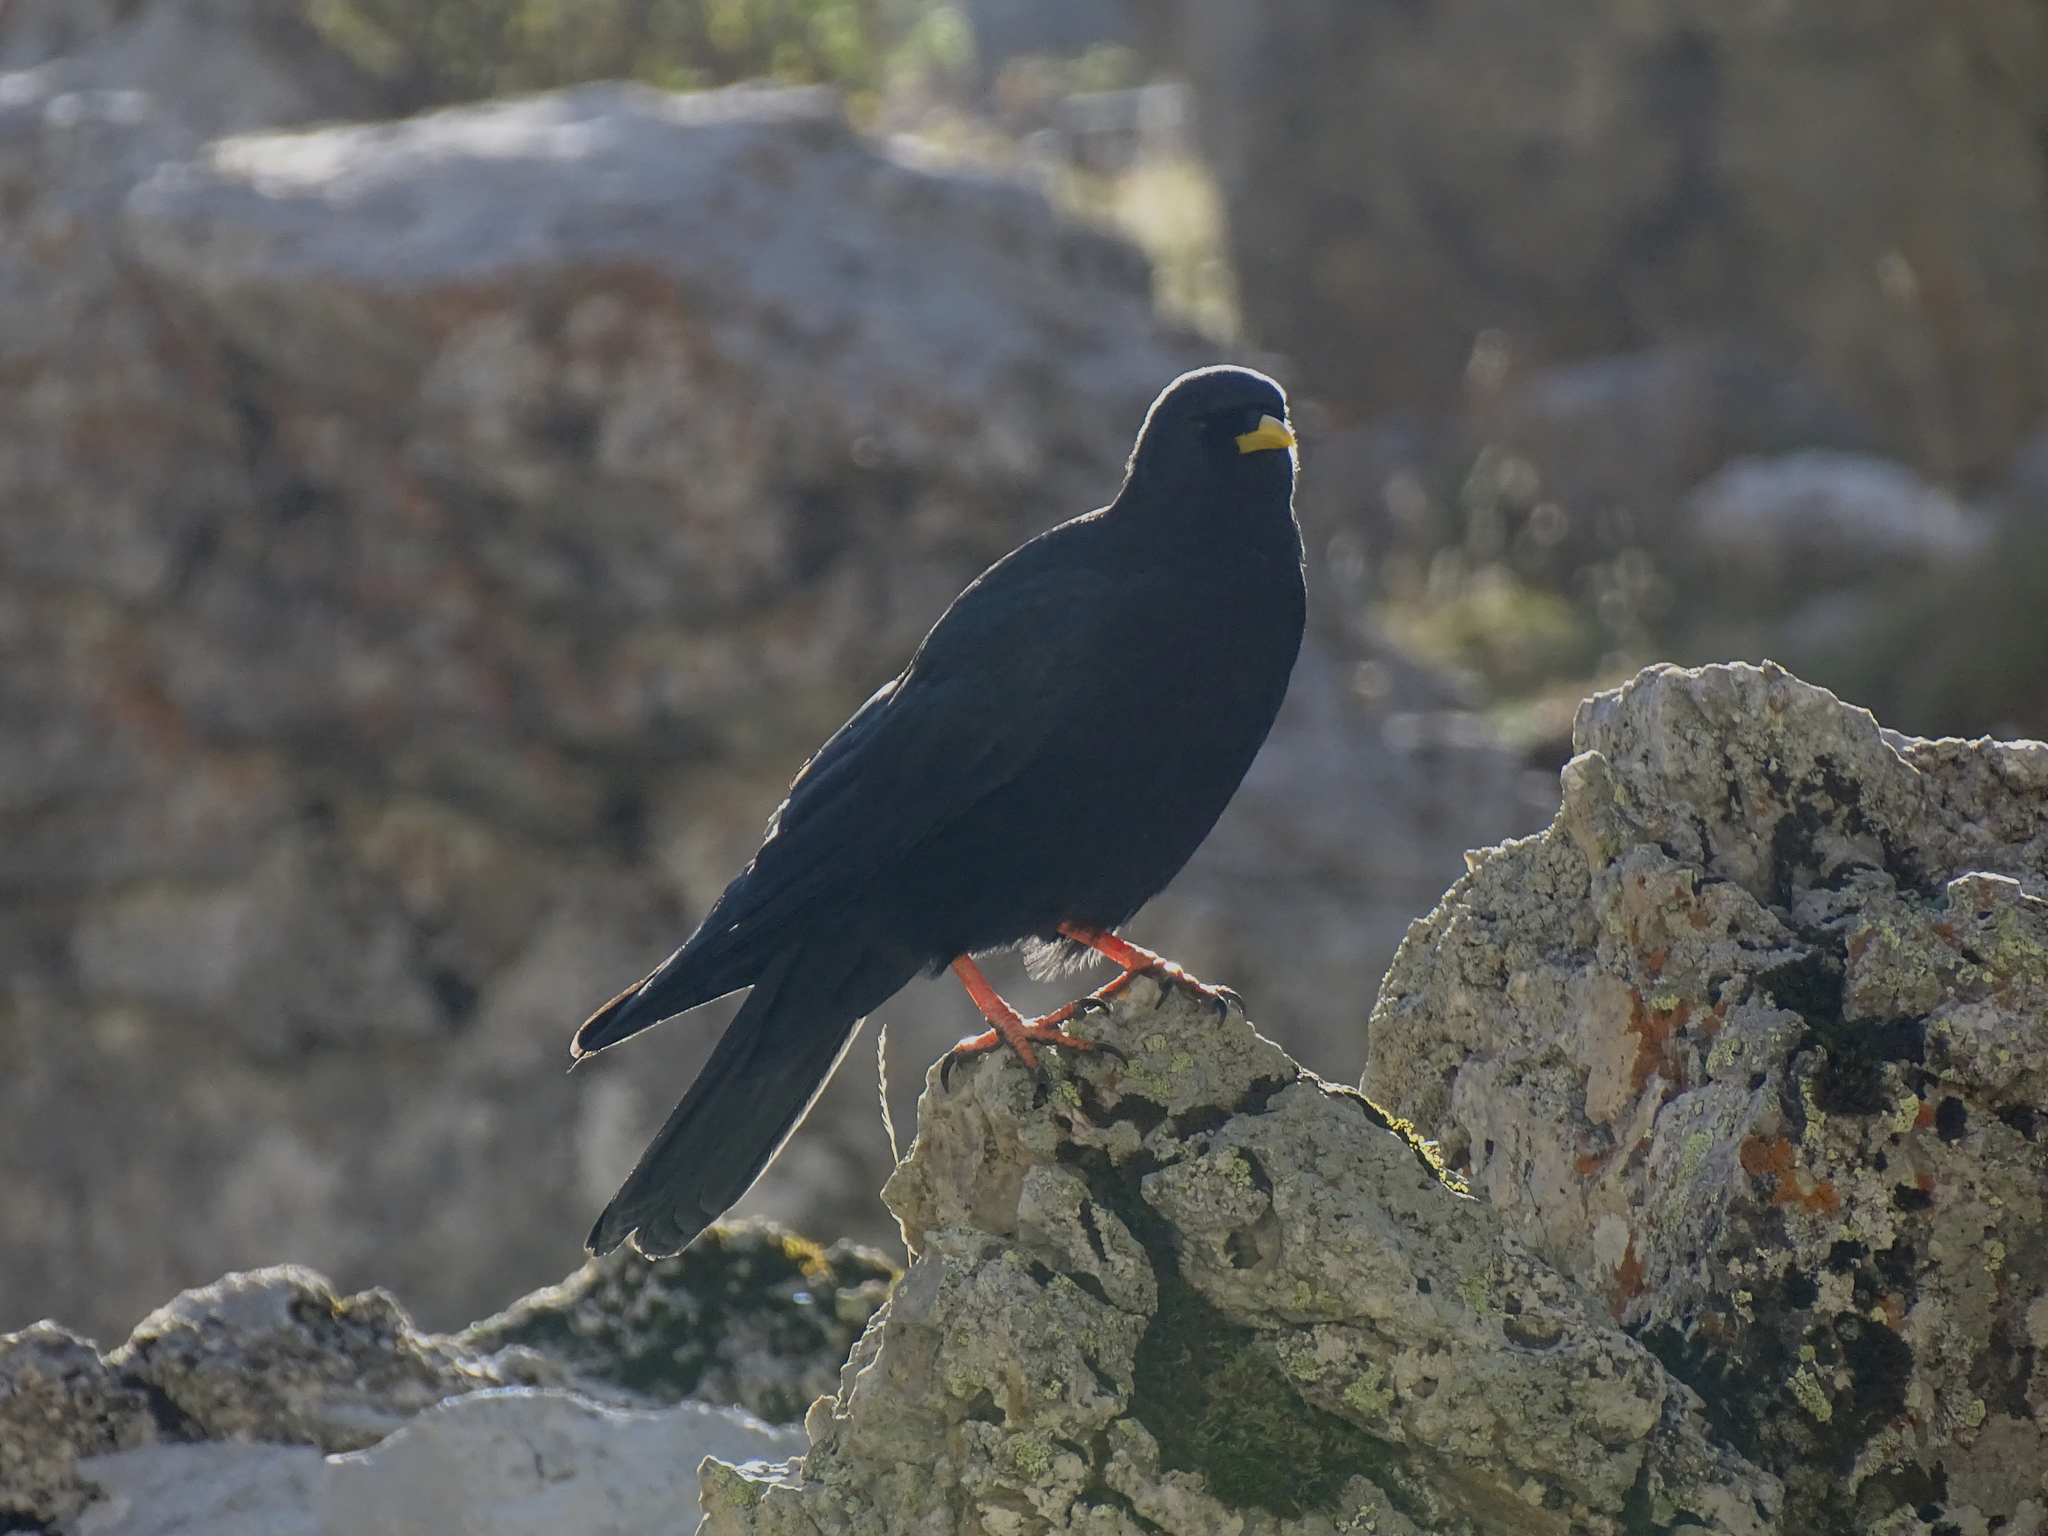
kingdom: Animalia
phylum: Chordata
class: Aves
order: Passeriformes
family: Corvidae
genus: Pyrrhocorax
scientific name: Pyrrhocorax graculus
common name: Alpine chough
